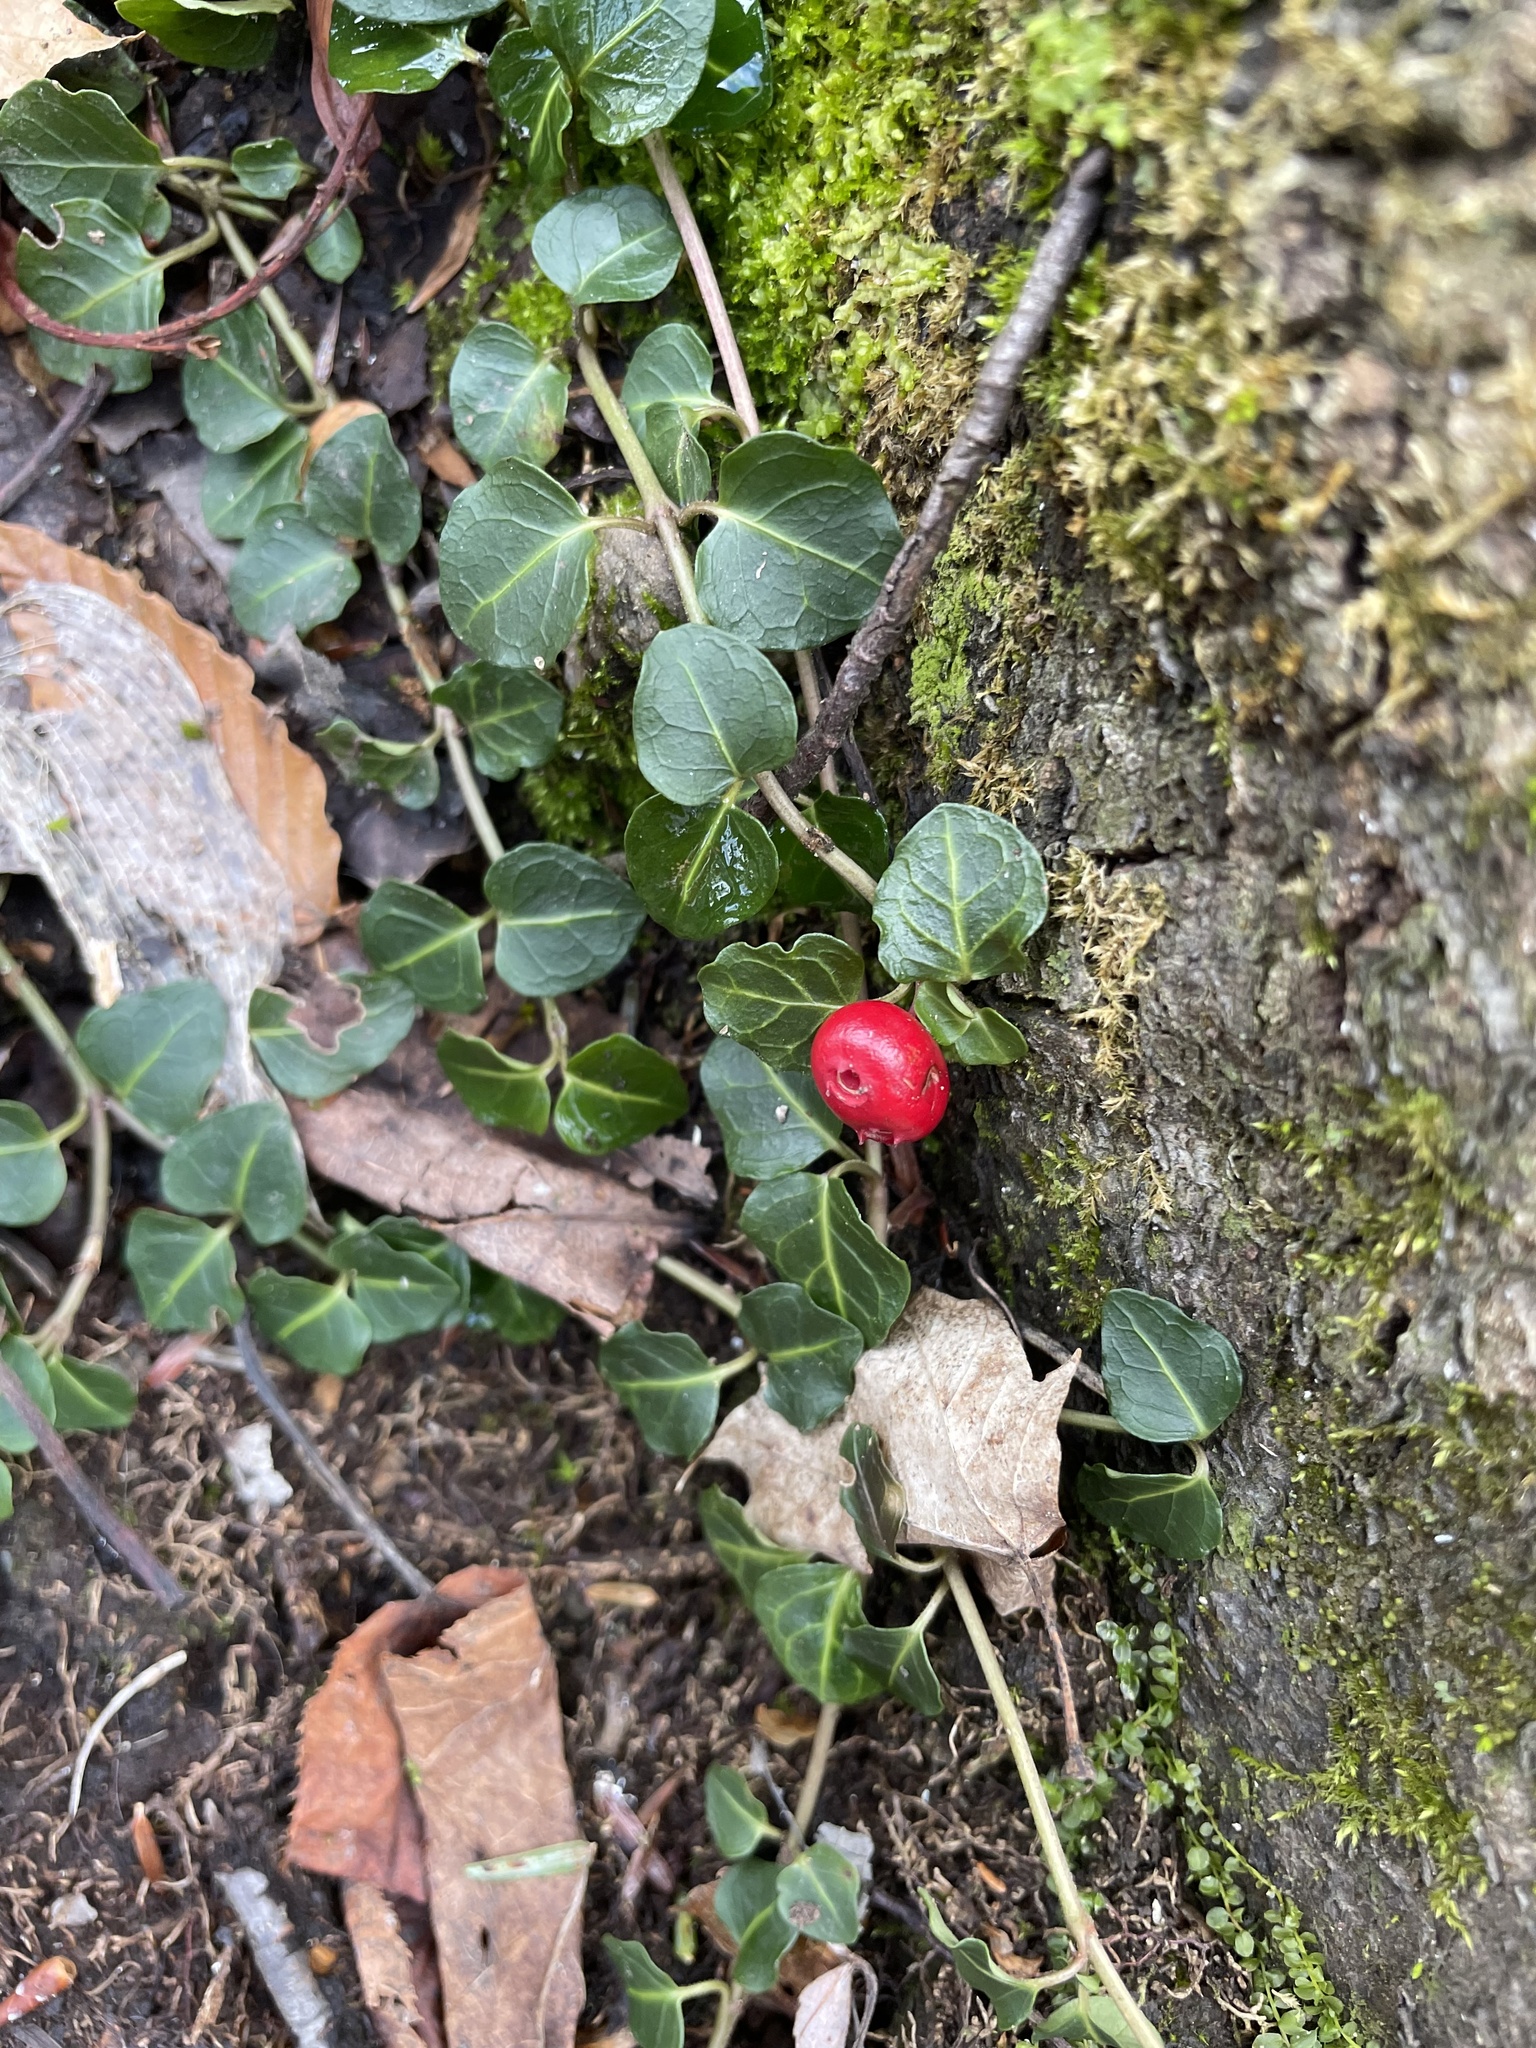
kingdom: Plantae
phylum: Tracheophyta
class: Magnoliopsida
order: Gentianales
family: Rubiaceae
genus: Mitchella
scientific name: Mitchella repens
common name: Partridge-berry
